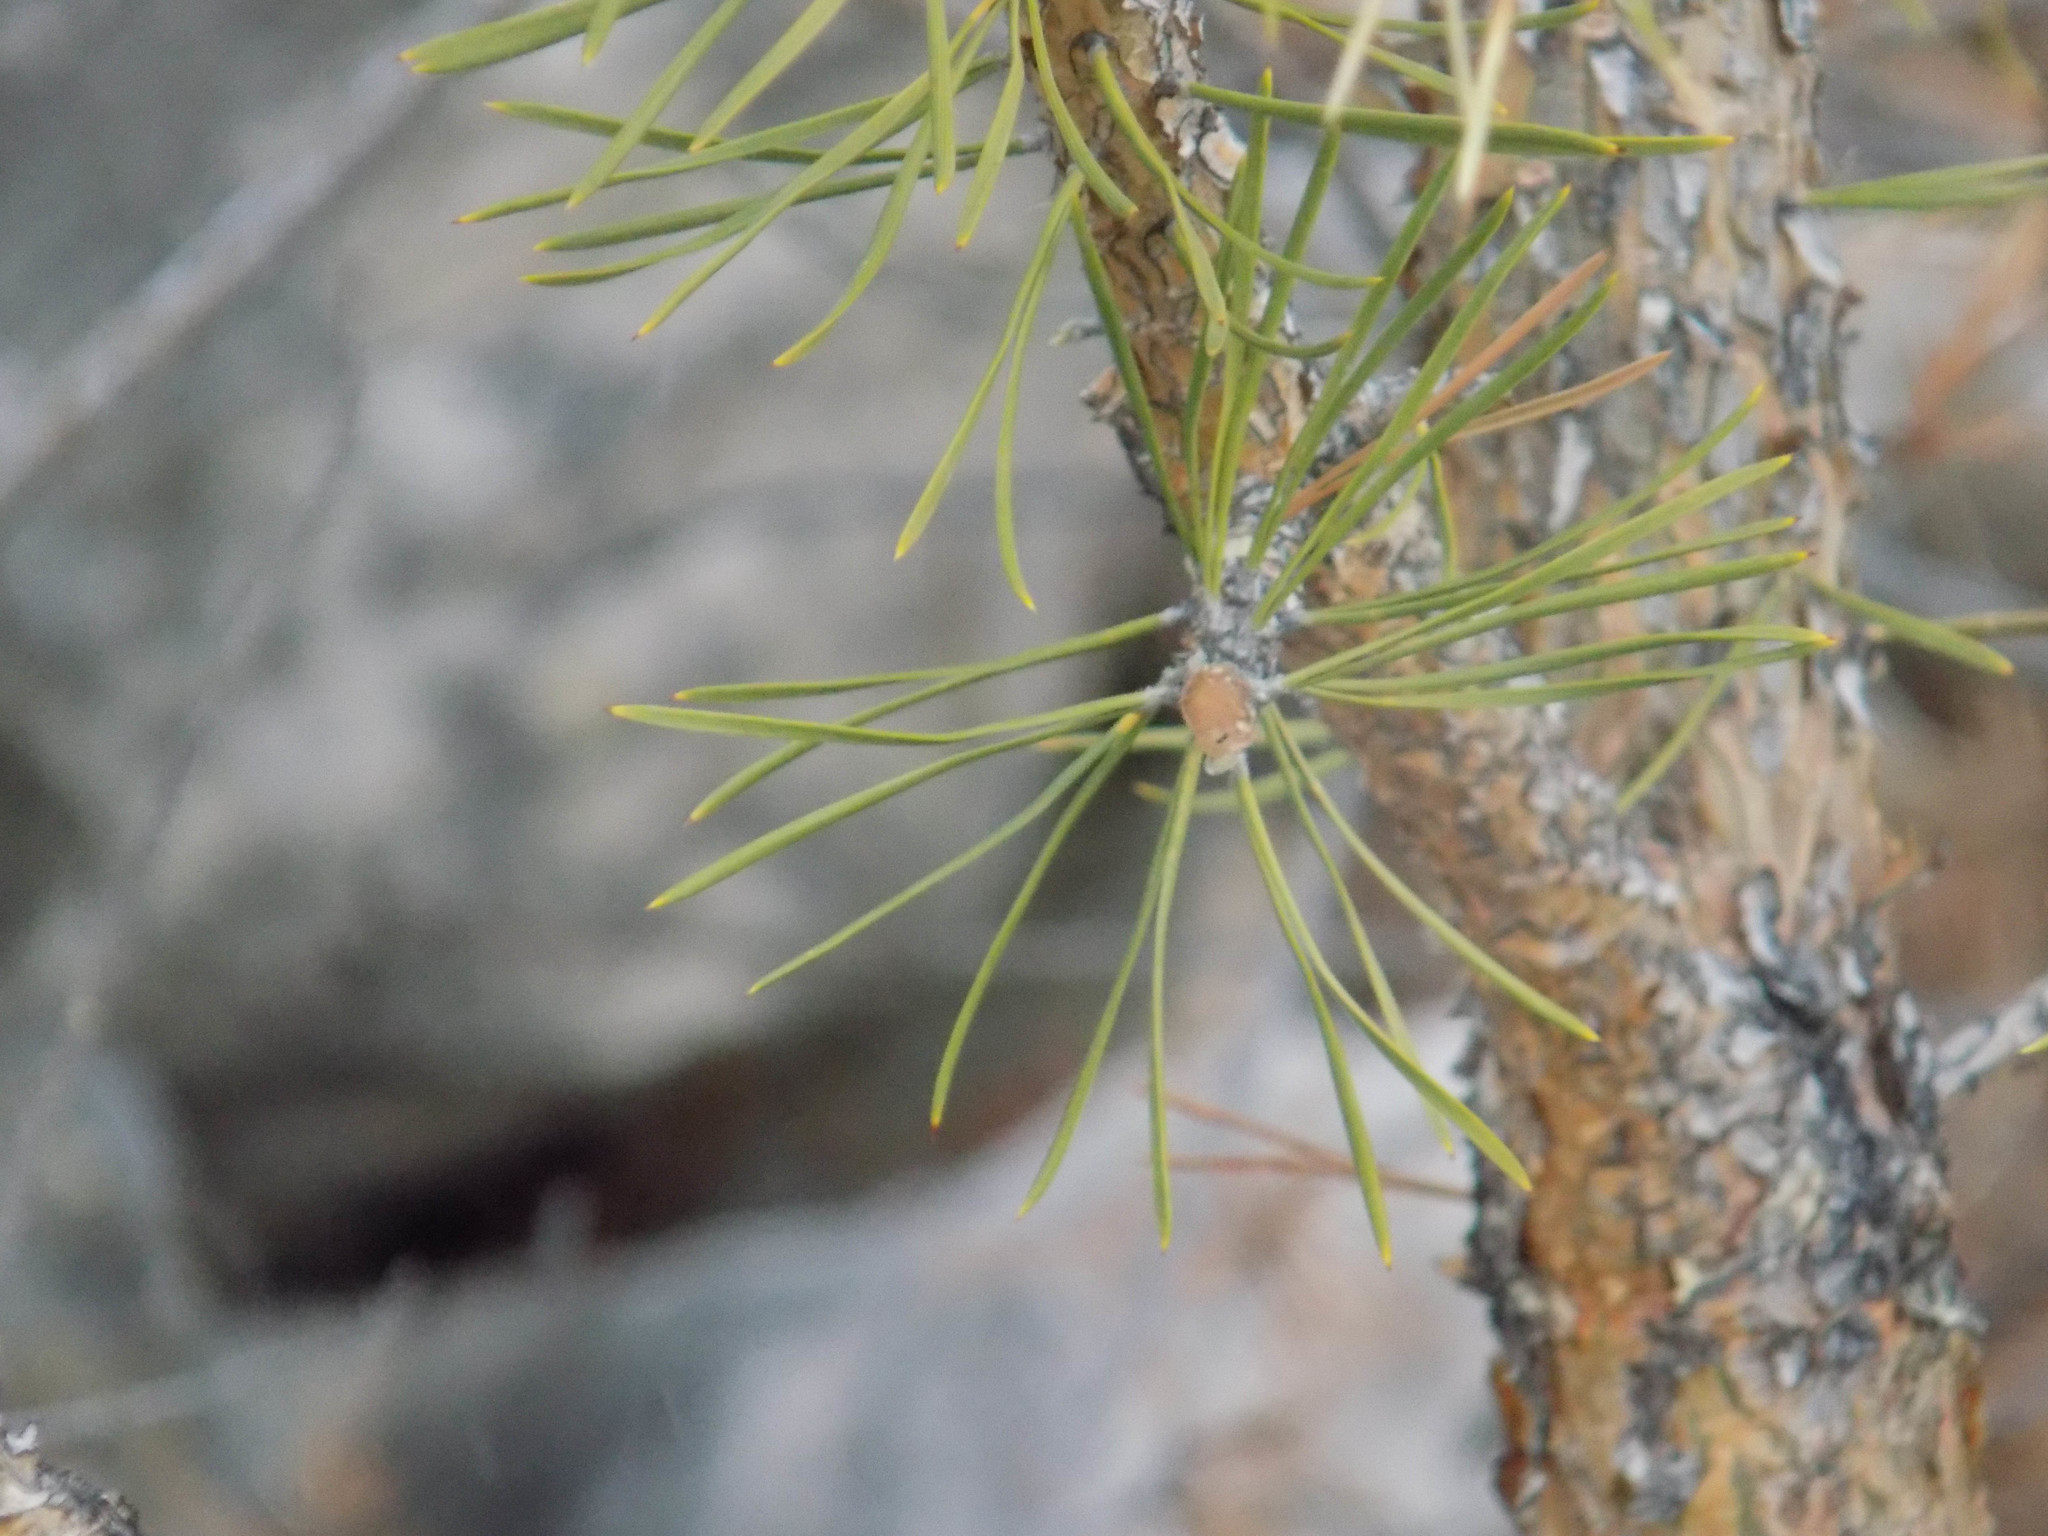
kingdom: Plantae
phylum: Tracheophyta
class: Pinopsida
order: Pinales
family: Pinaceae
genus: Pinus
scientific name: Pinus sylvestris
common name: Scots pine
